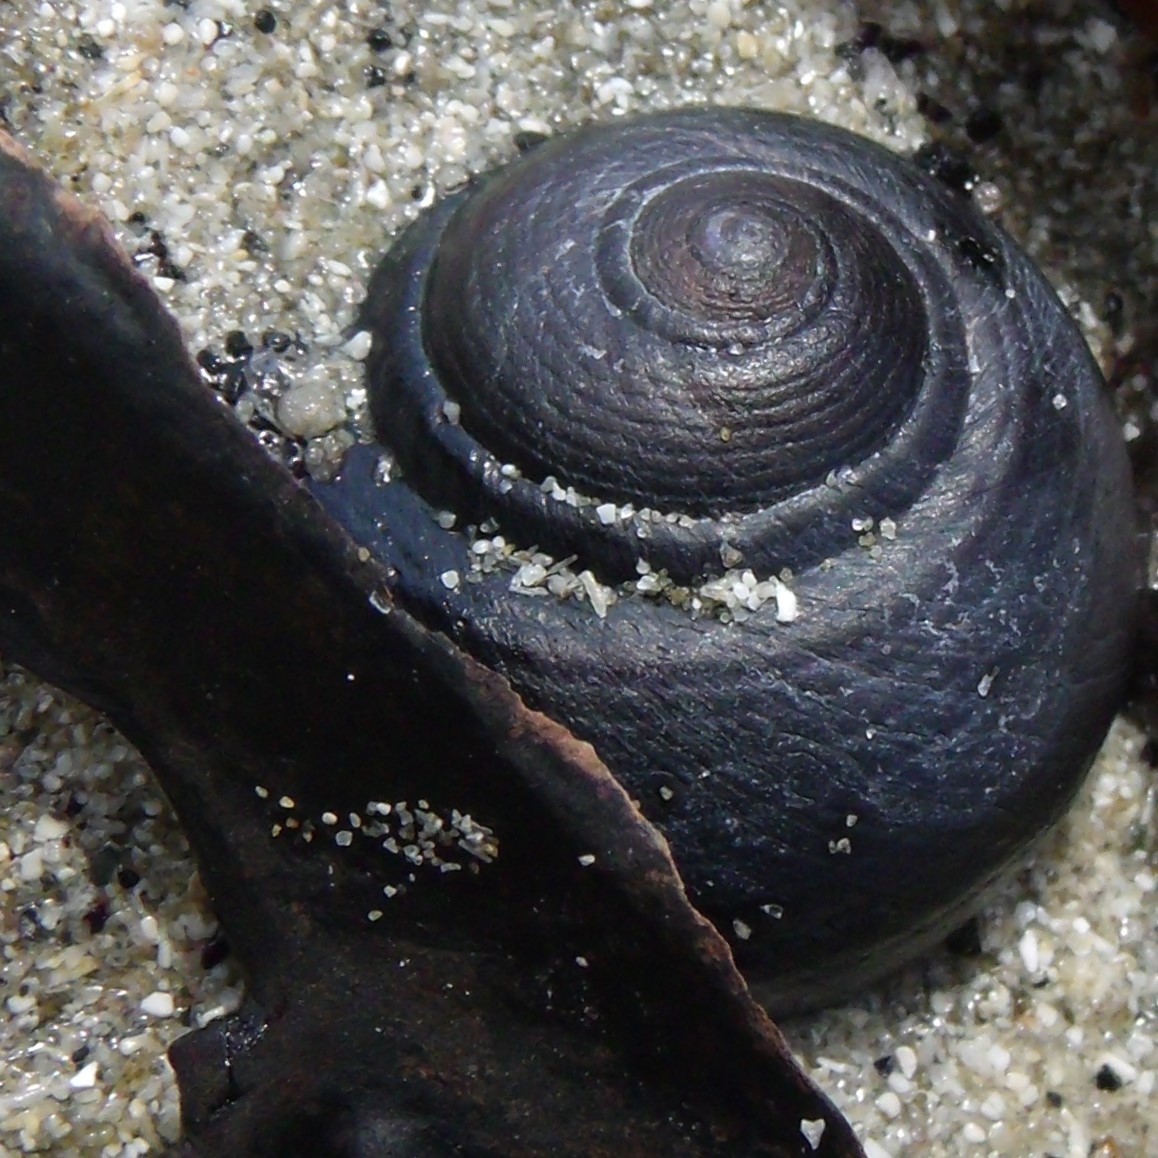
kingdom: Animalia
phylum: Mollusca
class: Gastropoda
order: Trochida
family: Trochidae
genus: Diloma
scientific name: Diloma nigerrimum
